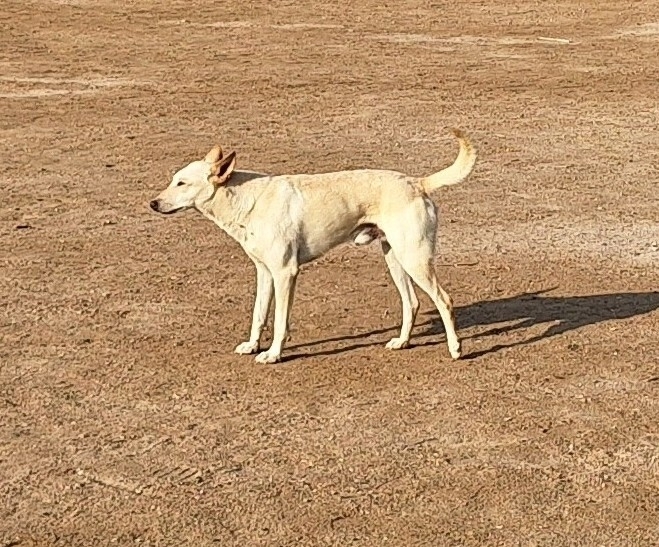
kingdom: Animalia
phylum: Chordata
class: Mammalia
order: Carnivora
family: Canidae
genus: Canis
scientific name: Canis lupus
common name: Gray wolf
